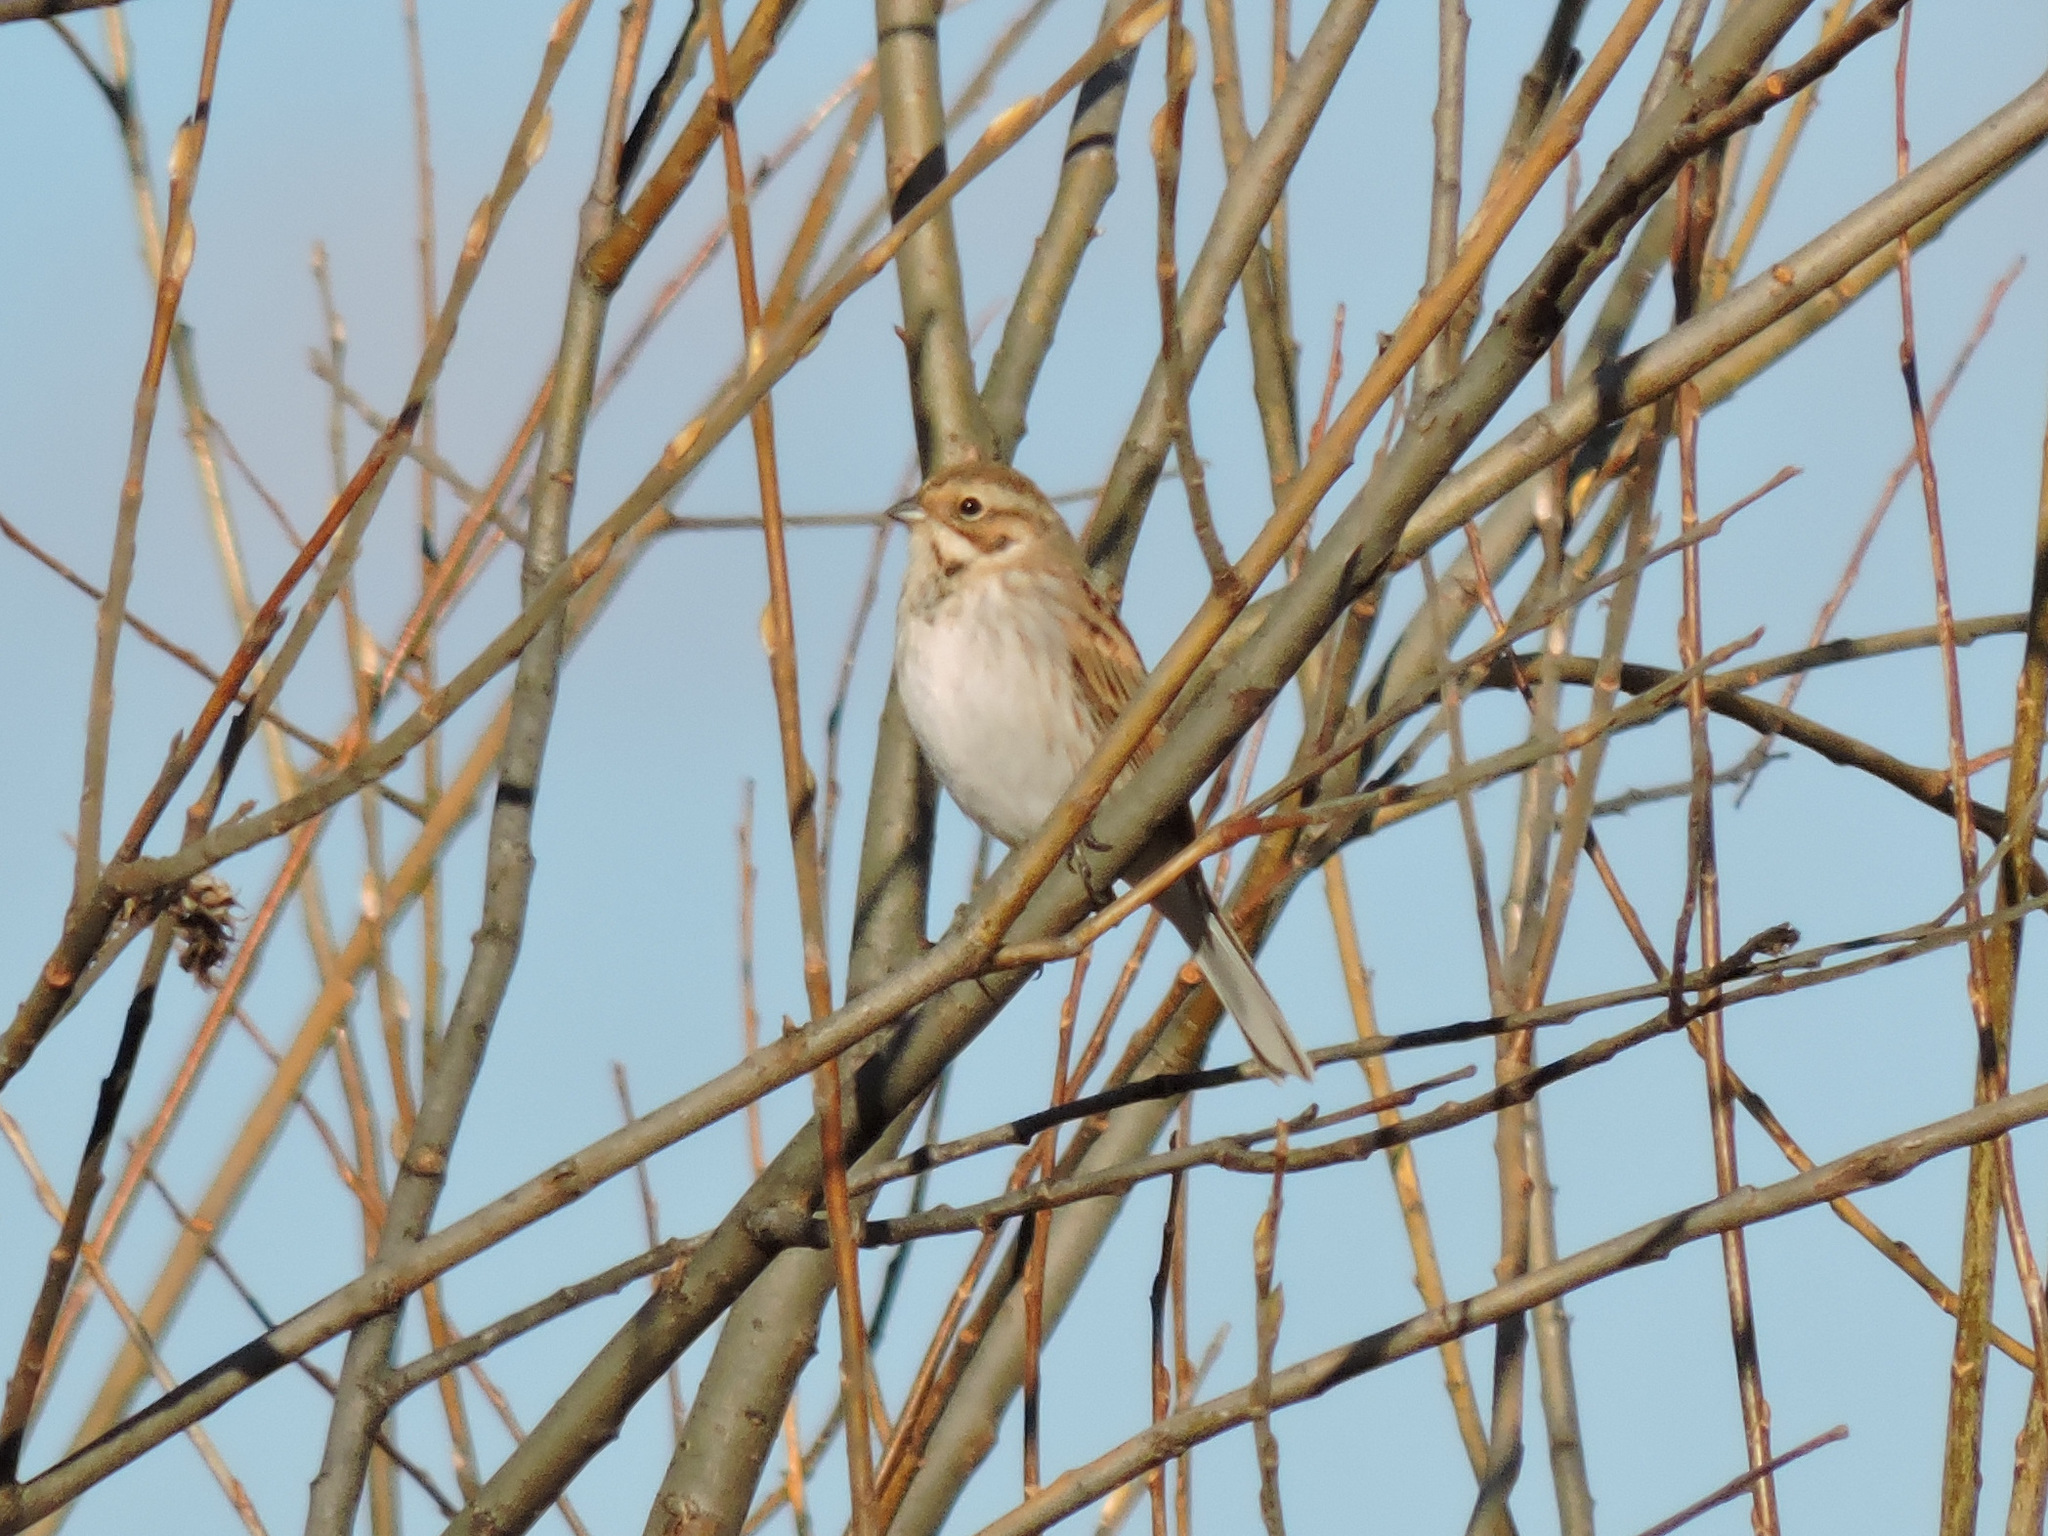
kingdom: Animalia
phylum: Chordata
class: Aves
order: Passeriformes
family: Emberizidae
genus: Emberiza
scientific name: Emberiza schoeniclus
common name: Reed bunting
